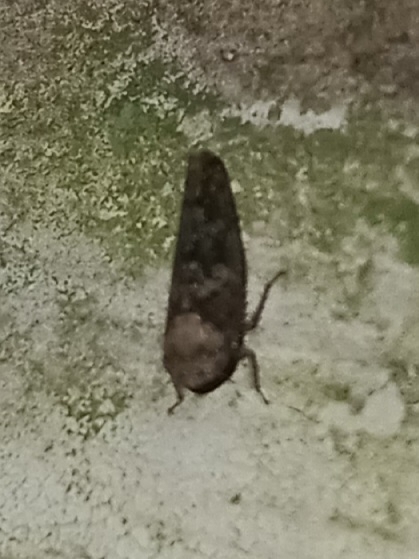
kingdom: Animalia
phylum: Arthropoda
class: Insecta
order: Hemiptera
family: Cicadellidae
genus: Paraphlepsius
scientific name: Paraphlepsius collitus
